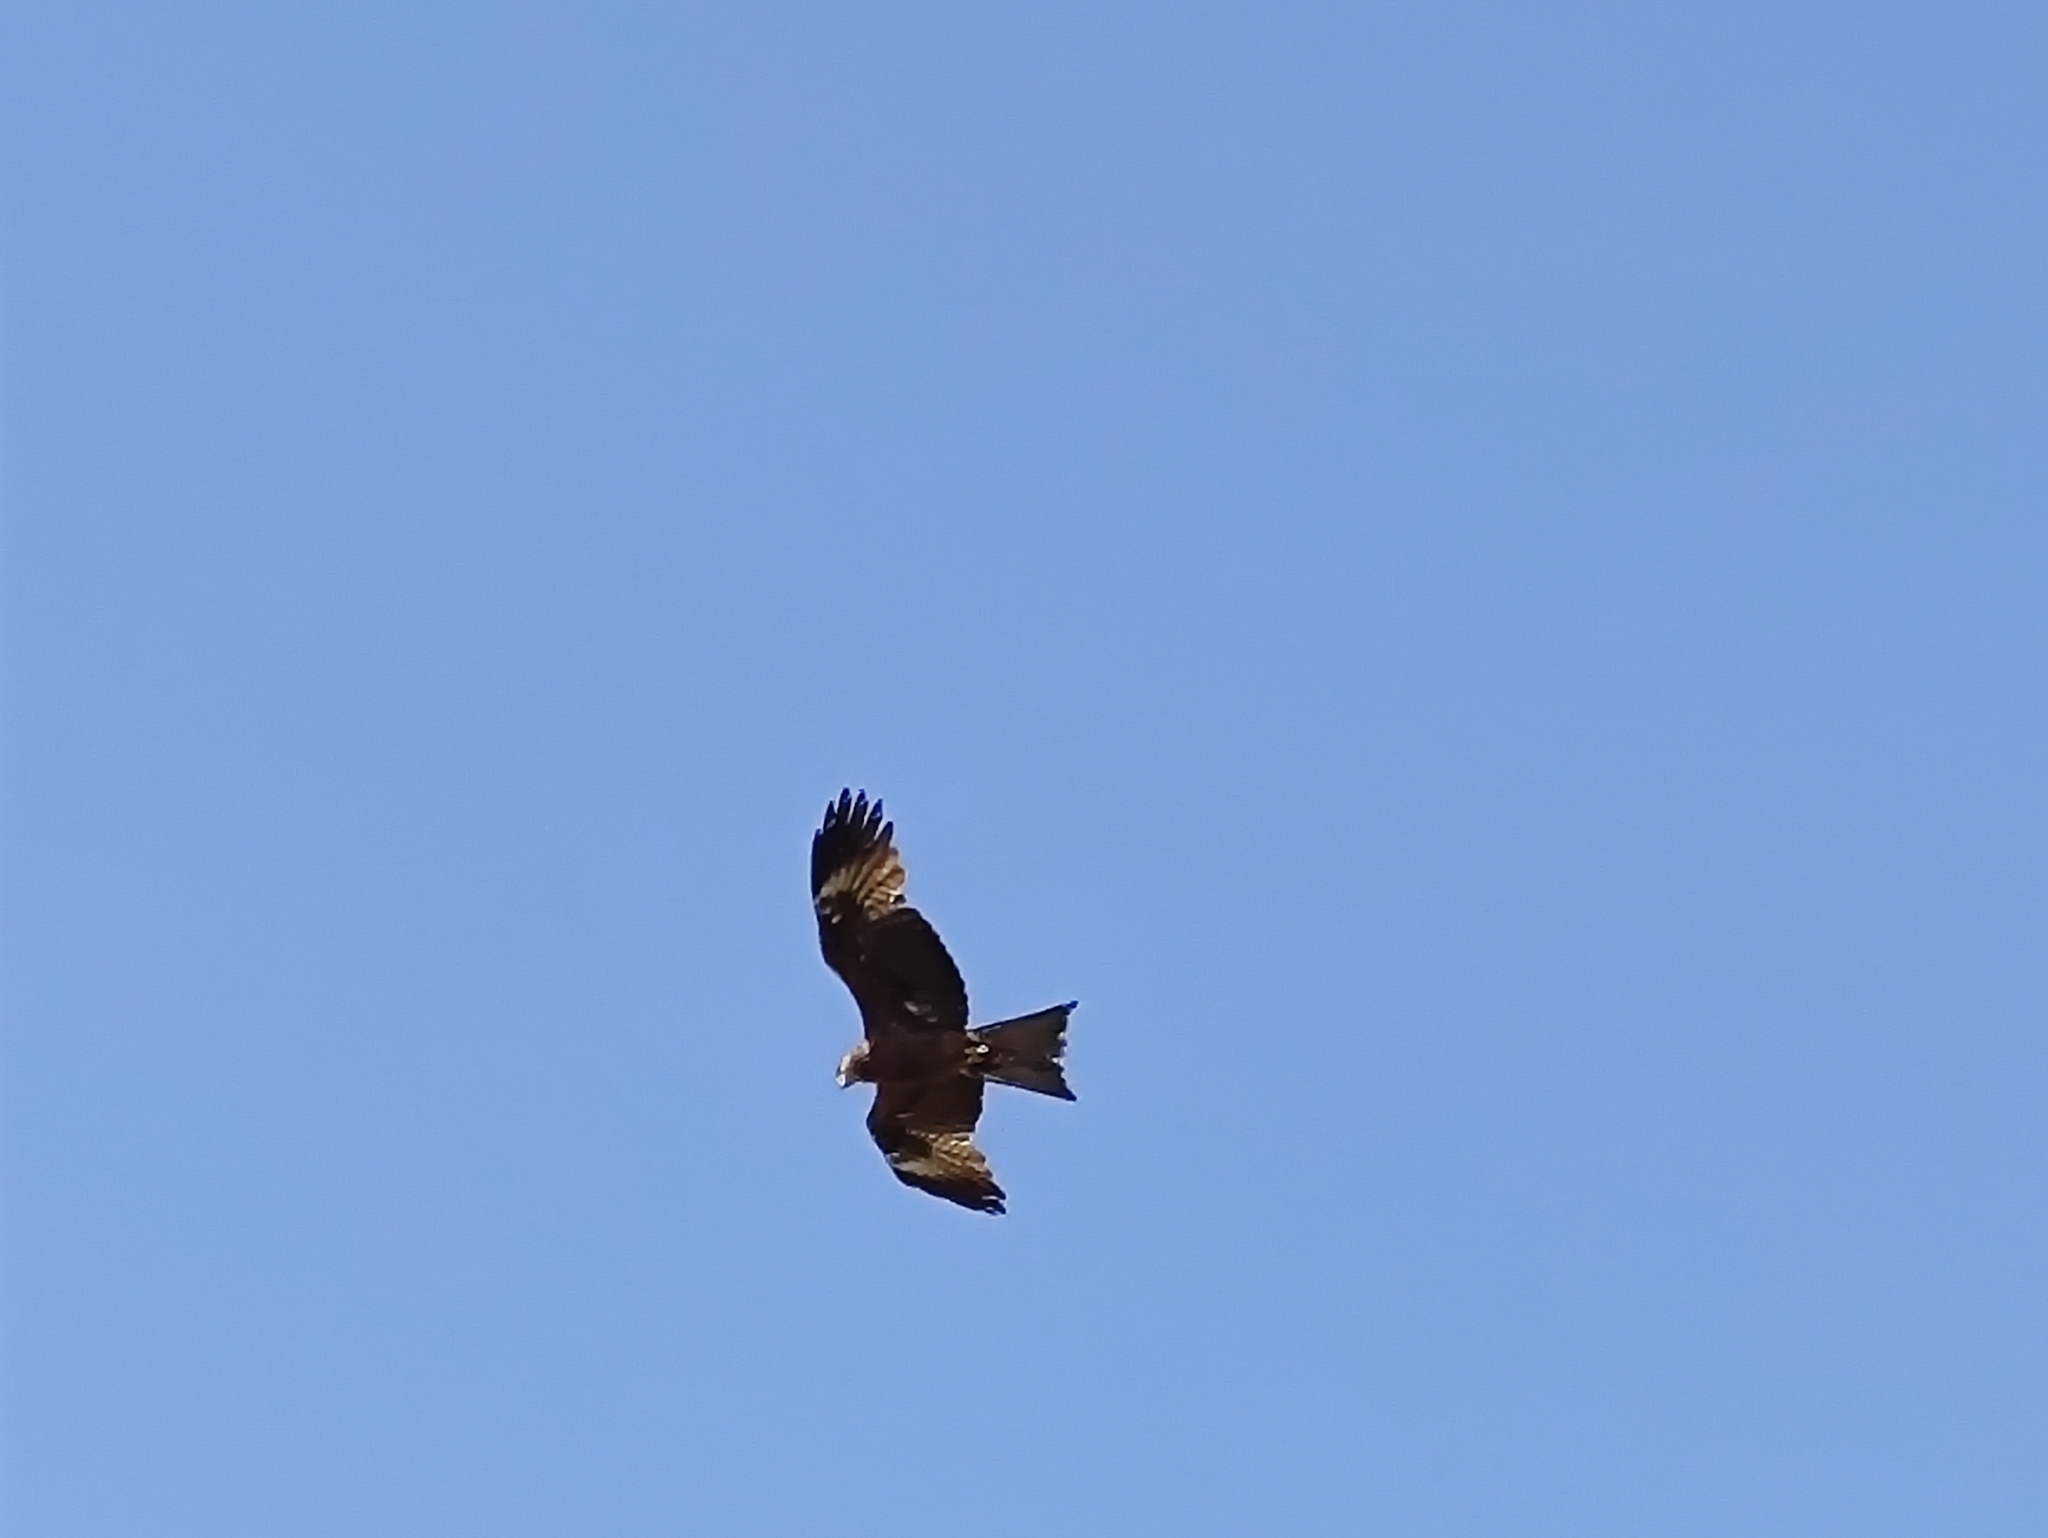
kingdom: Animalia
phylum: Chordata
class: Aves
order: Accipitriformes
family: Accipitridae
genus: Milvus
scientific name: Milvus migrans
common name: Black kite
